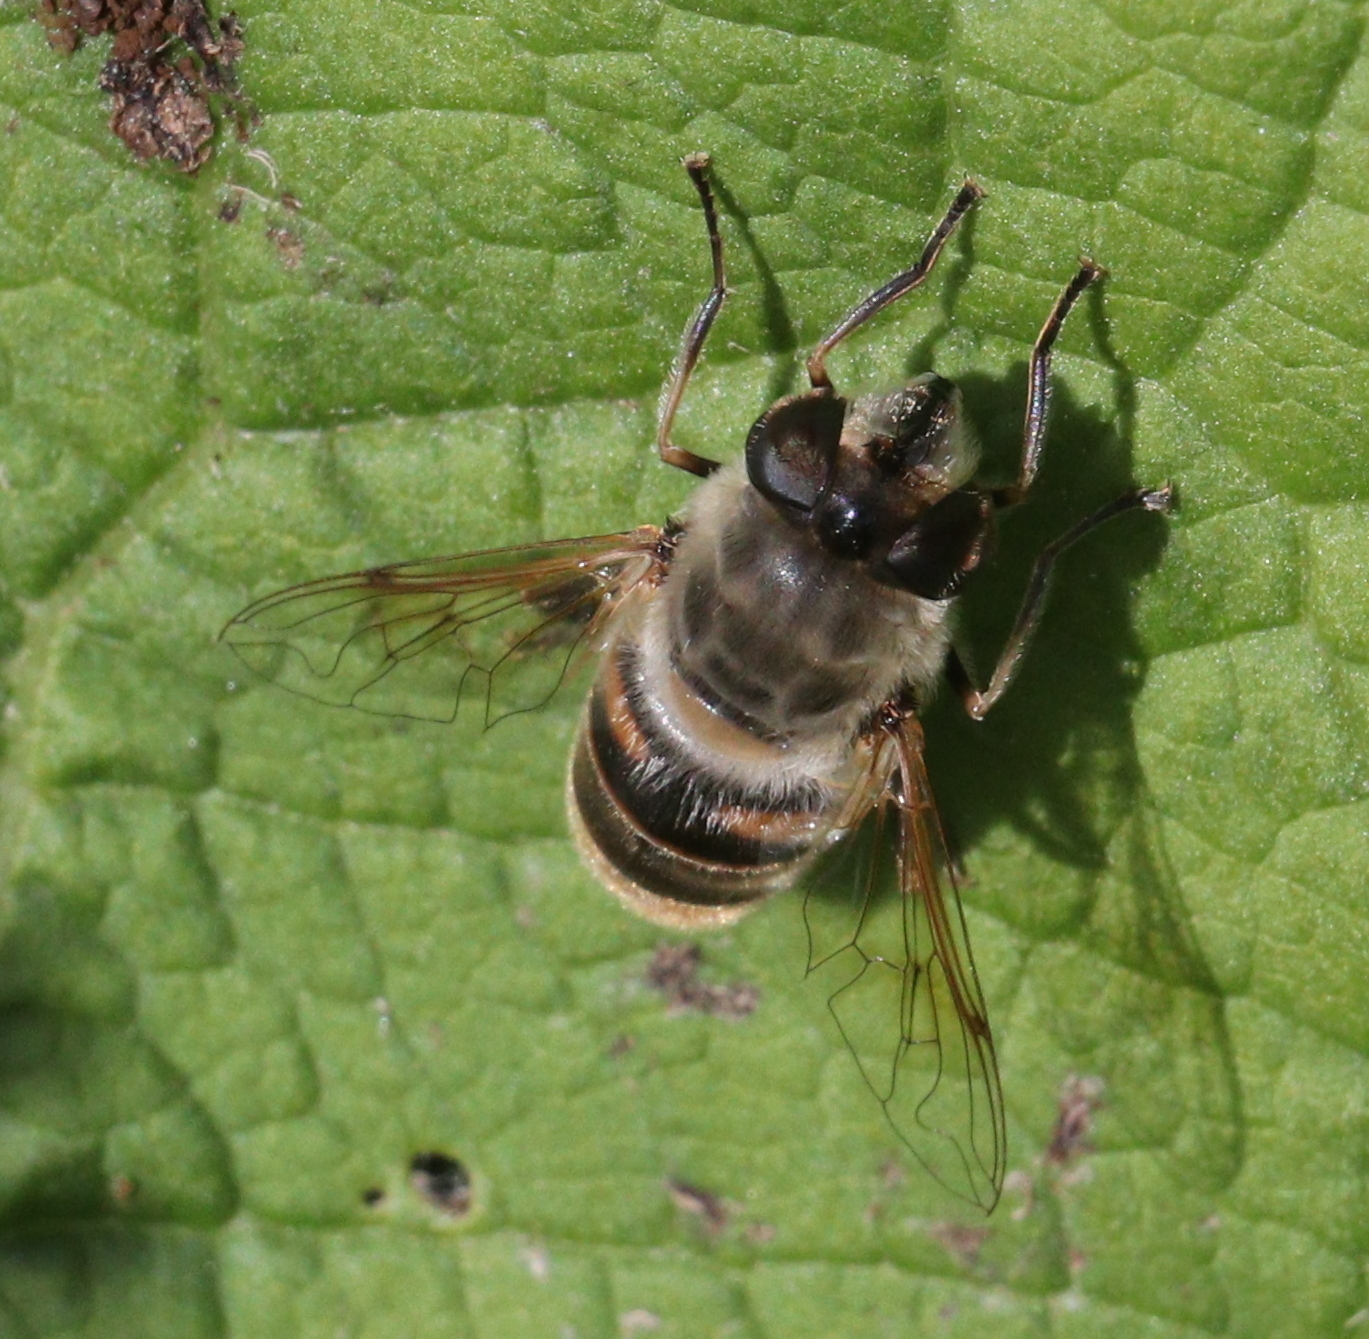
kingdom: Animalia
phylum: Arthropoda
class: Insecta
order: Diptera
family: Syrphidae
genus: Eristalis
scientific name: Eristalis tenax
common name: Drone fly
